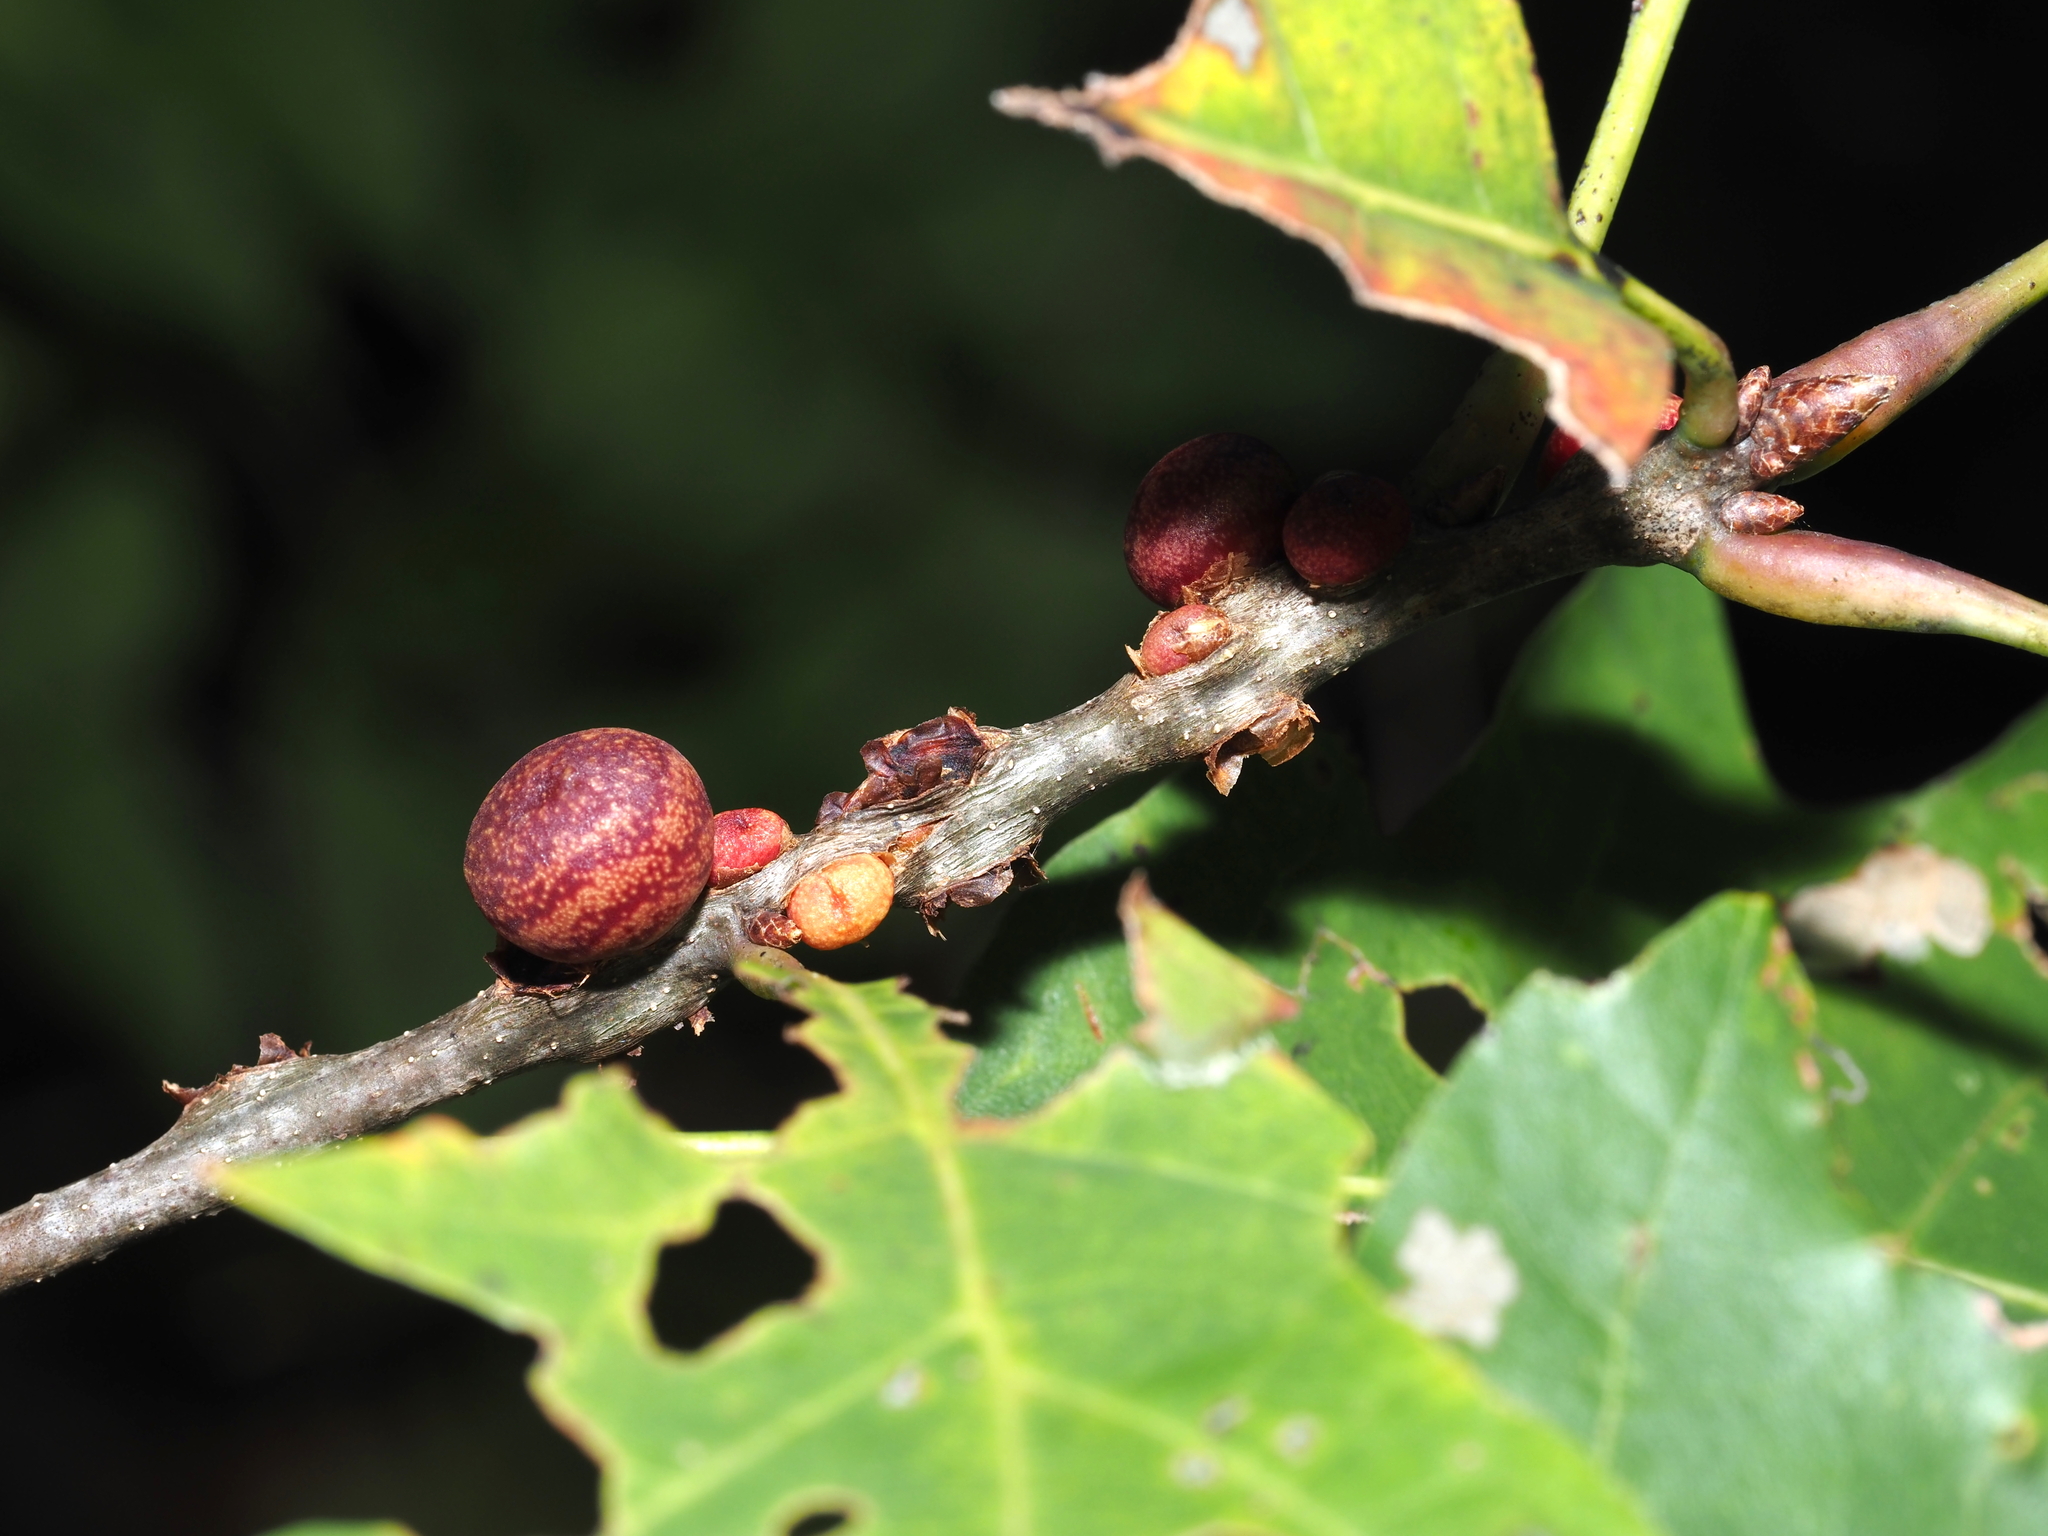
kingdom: Animalia
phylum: Arthropoda
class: Insecta
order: Hymenoptera
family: Cynipidae
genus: Kokkocynips
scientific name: Kokkocynips imbricariae
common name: Banded bullet gall wasp
